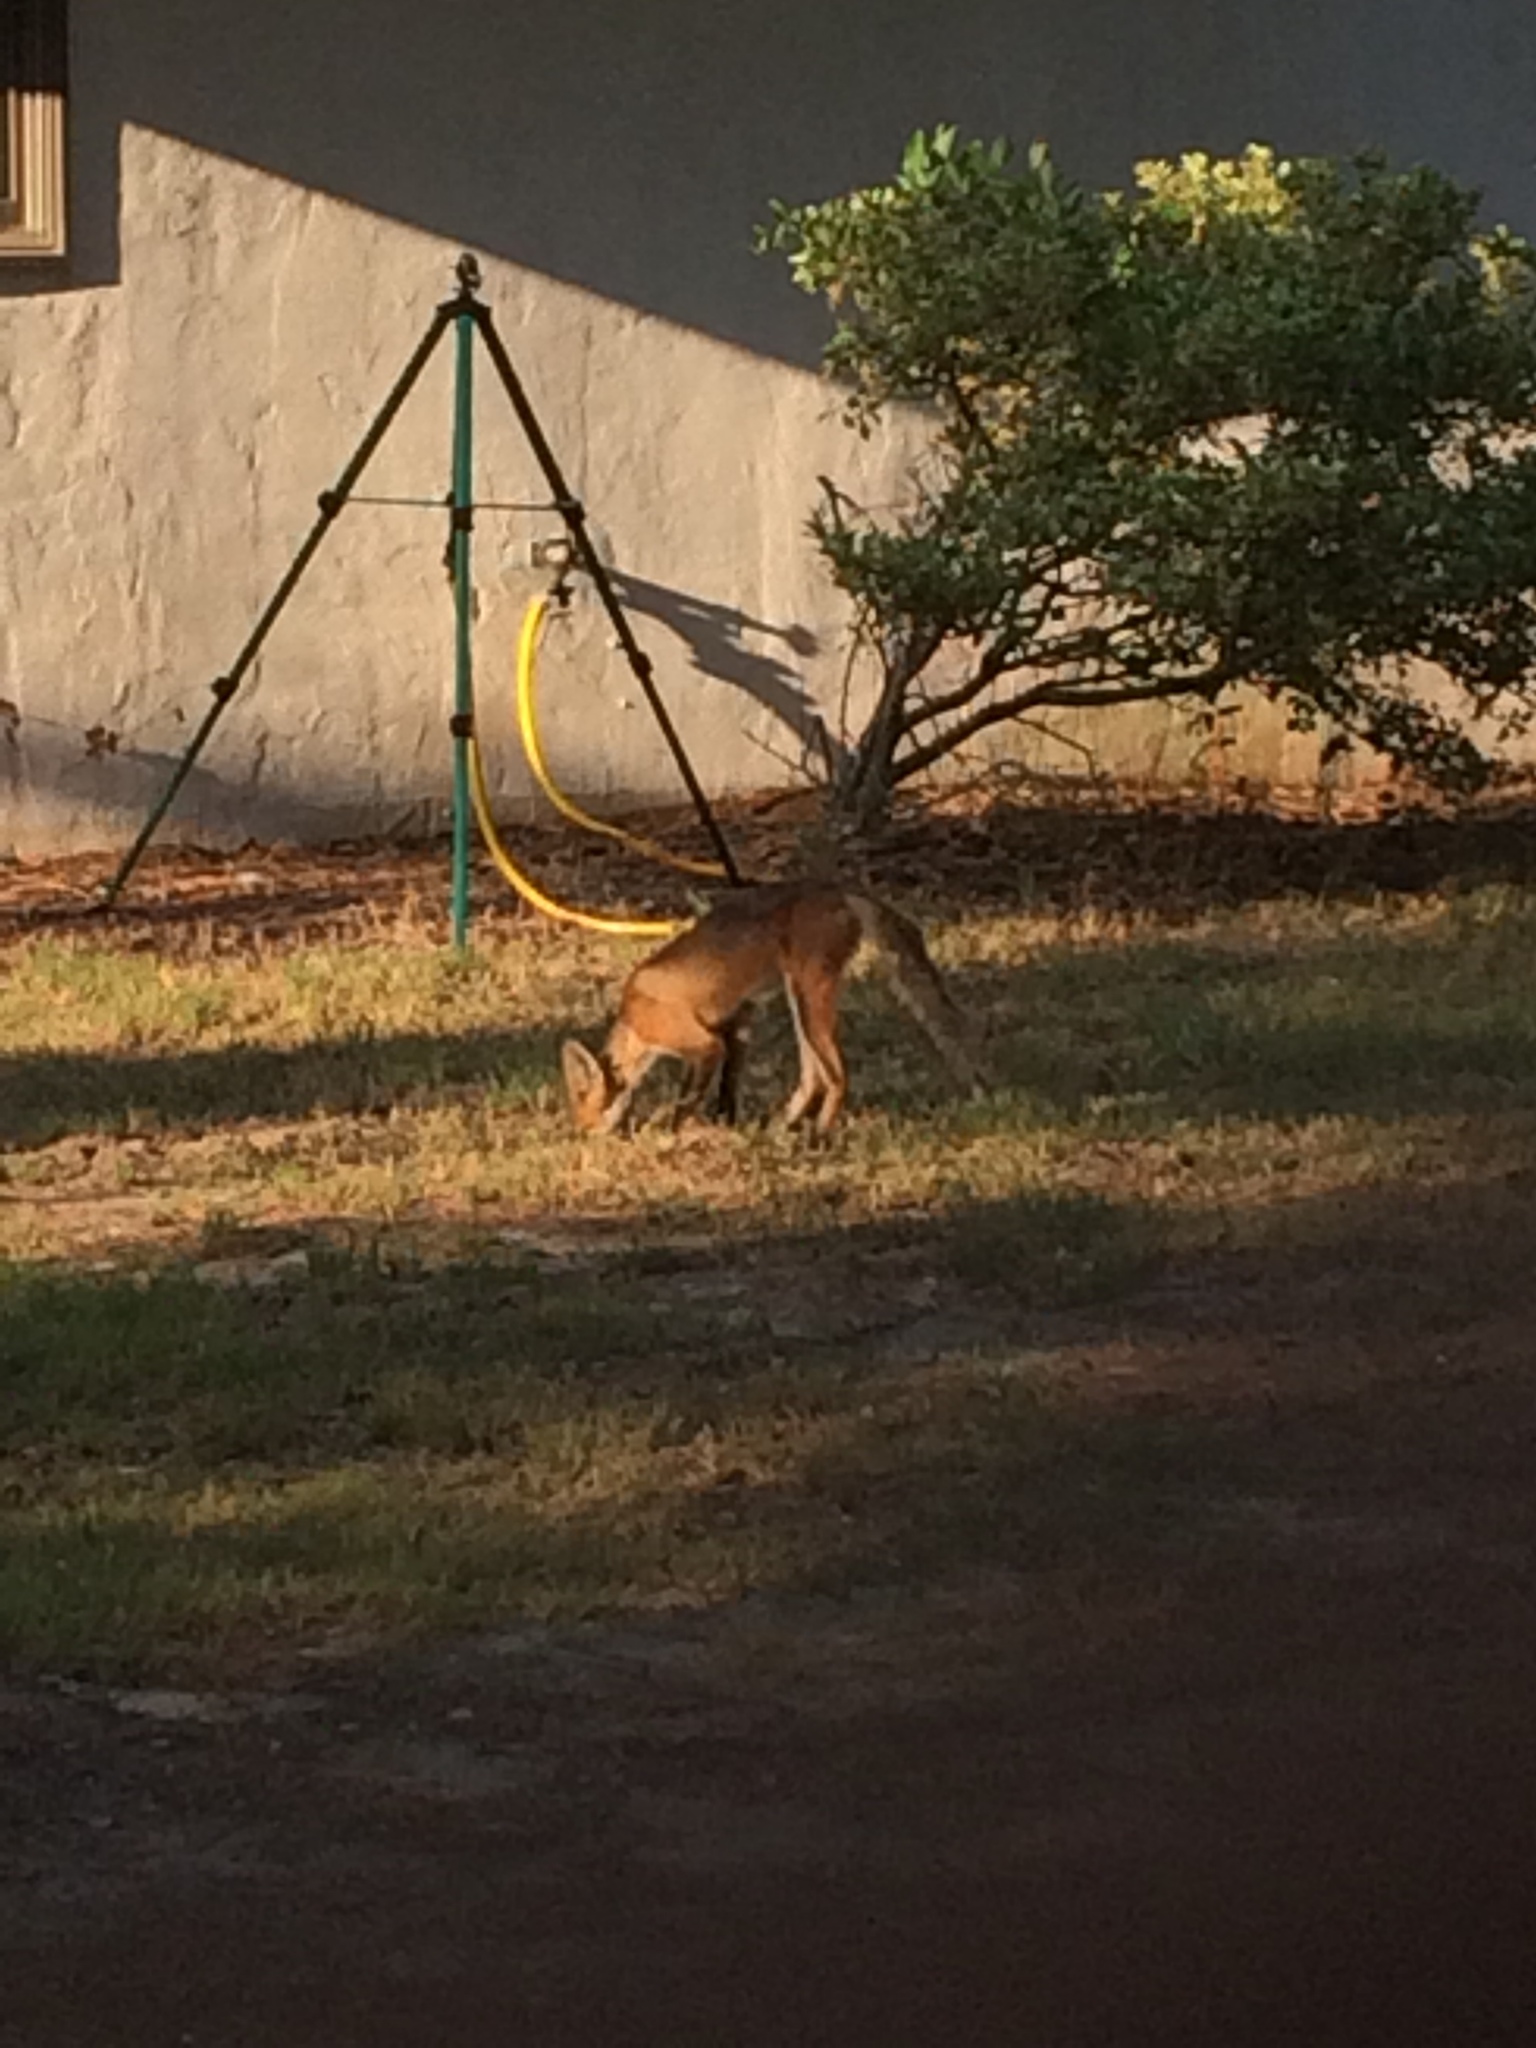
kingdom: Animalia
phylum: Chordata
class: Mammalia
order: Carnivora
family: Canidae
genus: Vulpes
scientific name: Vulpes vulpes
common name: Red fox
